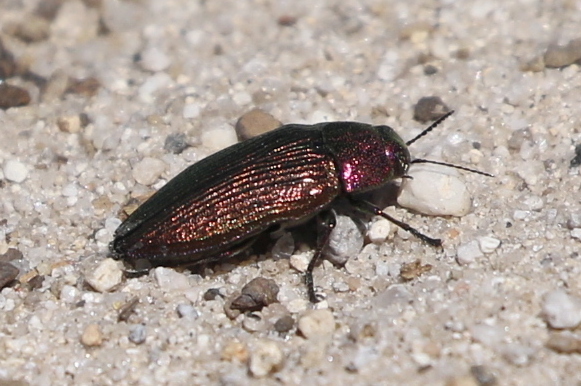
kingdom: Animalia
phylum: Arthropoda
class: Insecta
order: Coleoptera
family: Buprestidae
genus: Buprestis
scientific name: Buprestis adjecta
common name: Buprestid beetle
